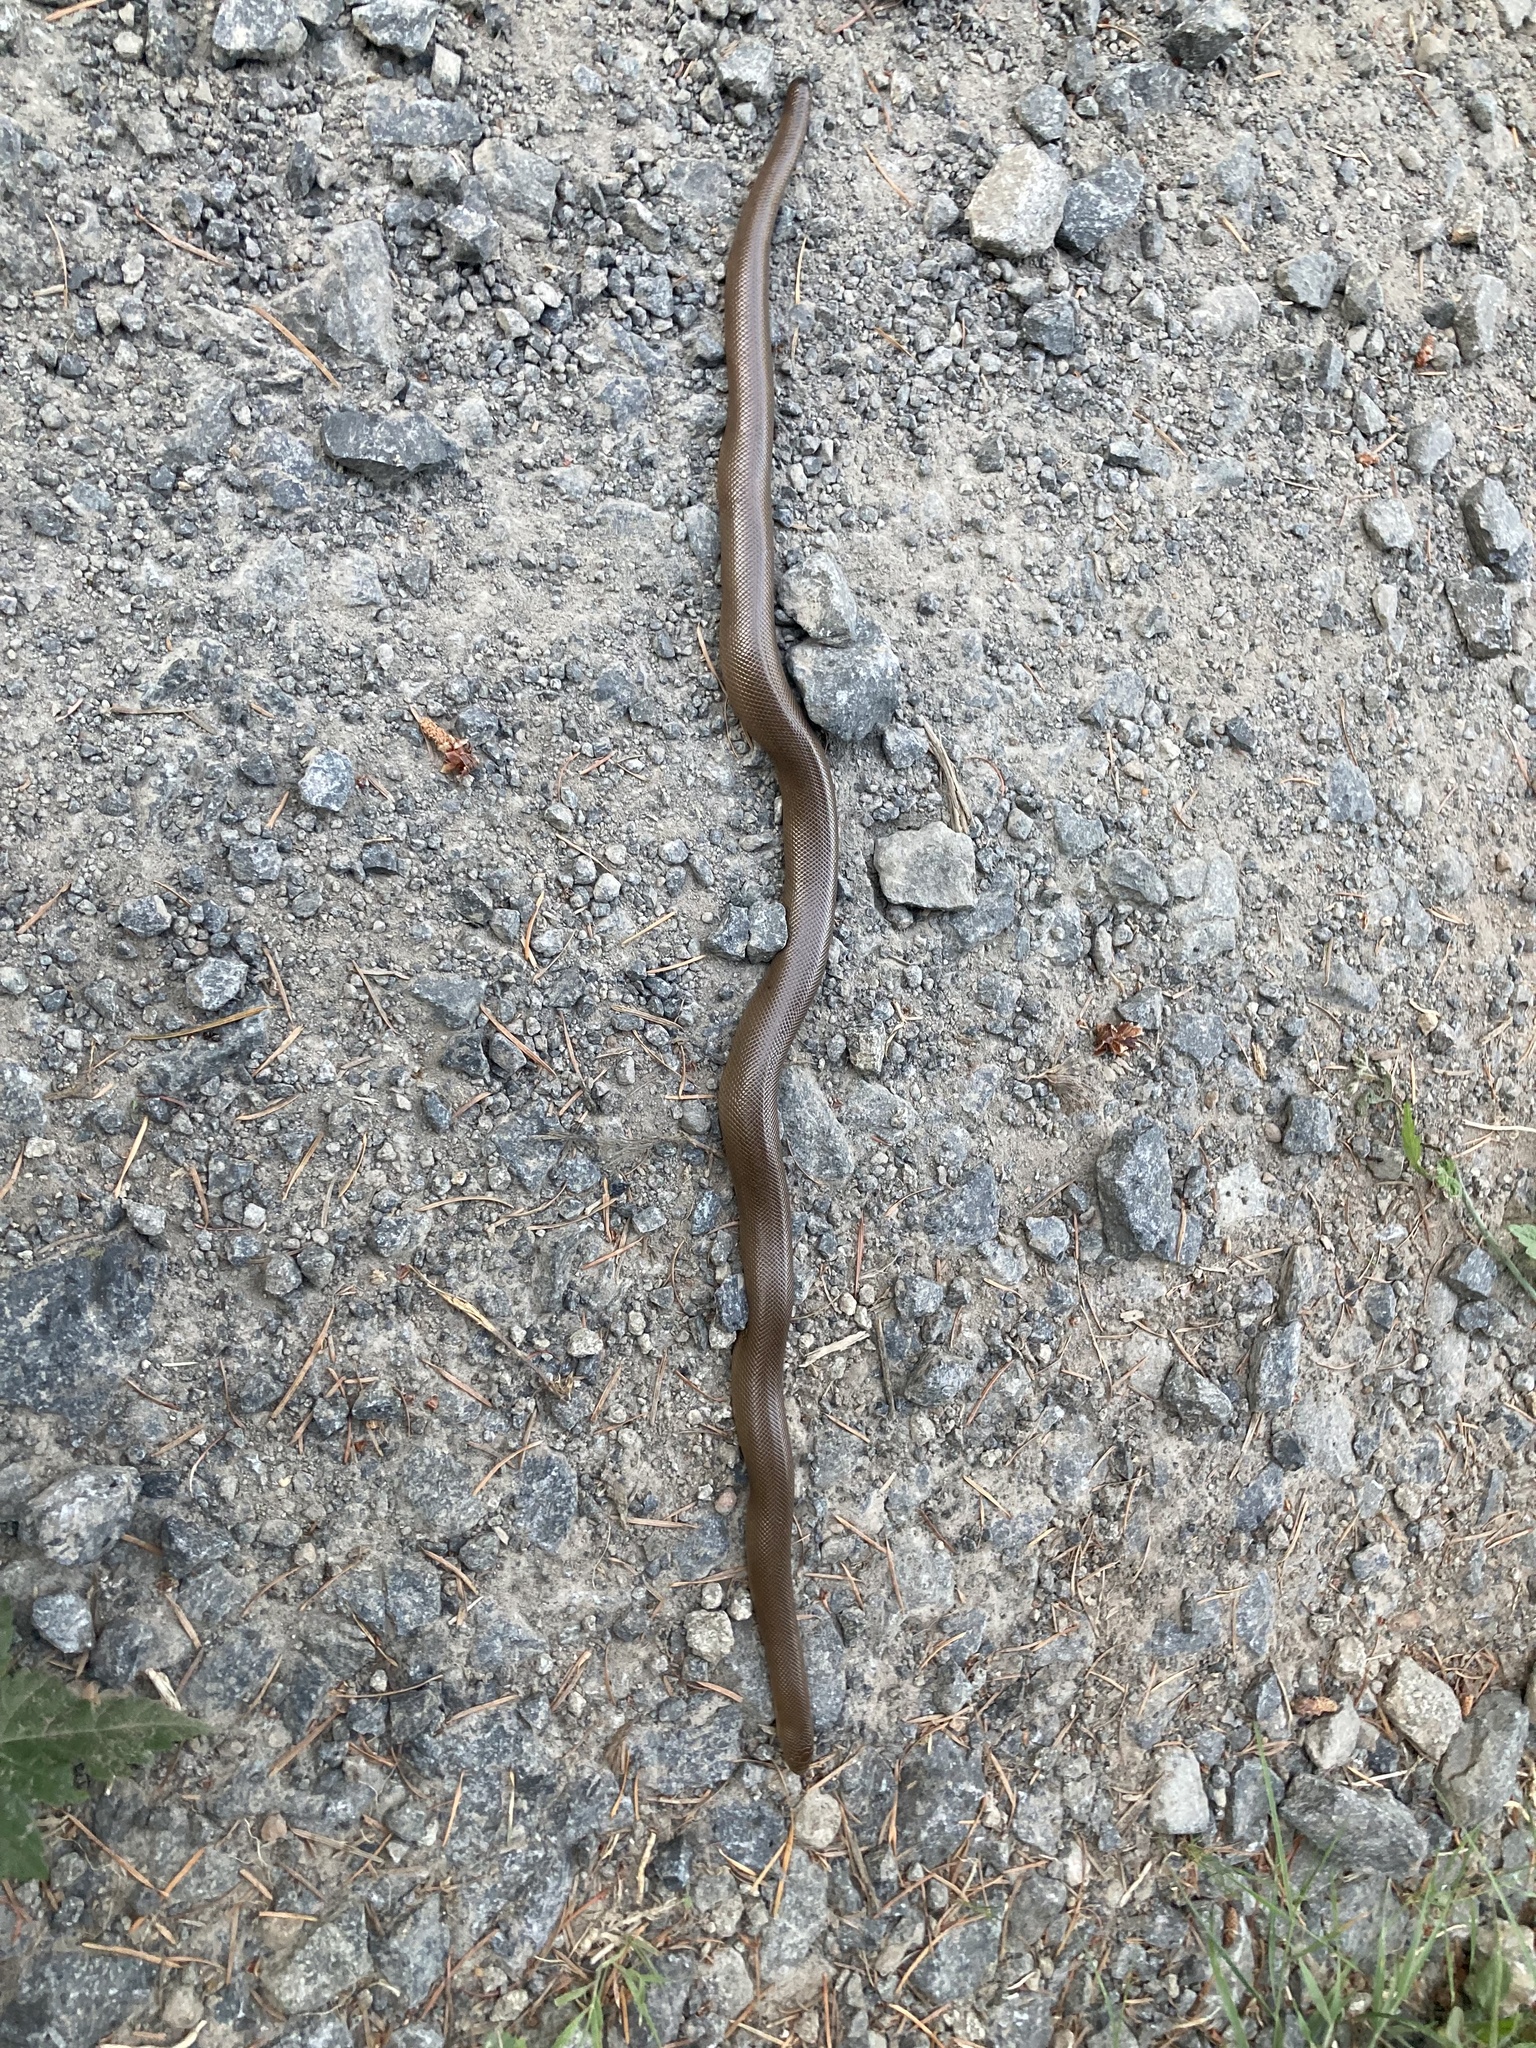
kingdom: Animalia
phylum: Chordata
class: Squamata
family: Boidae
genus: Charina
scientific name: Charina bottae
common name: Northern rubber boa
